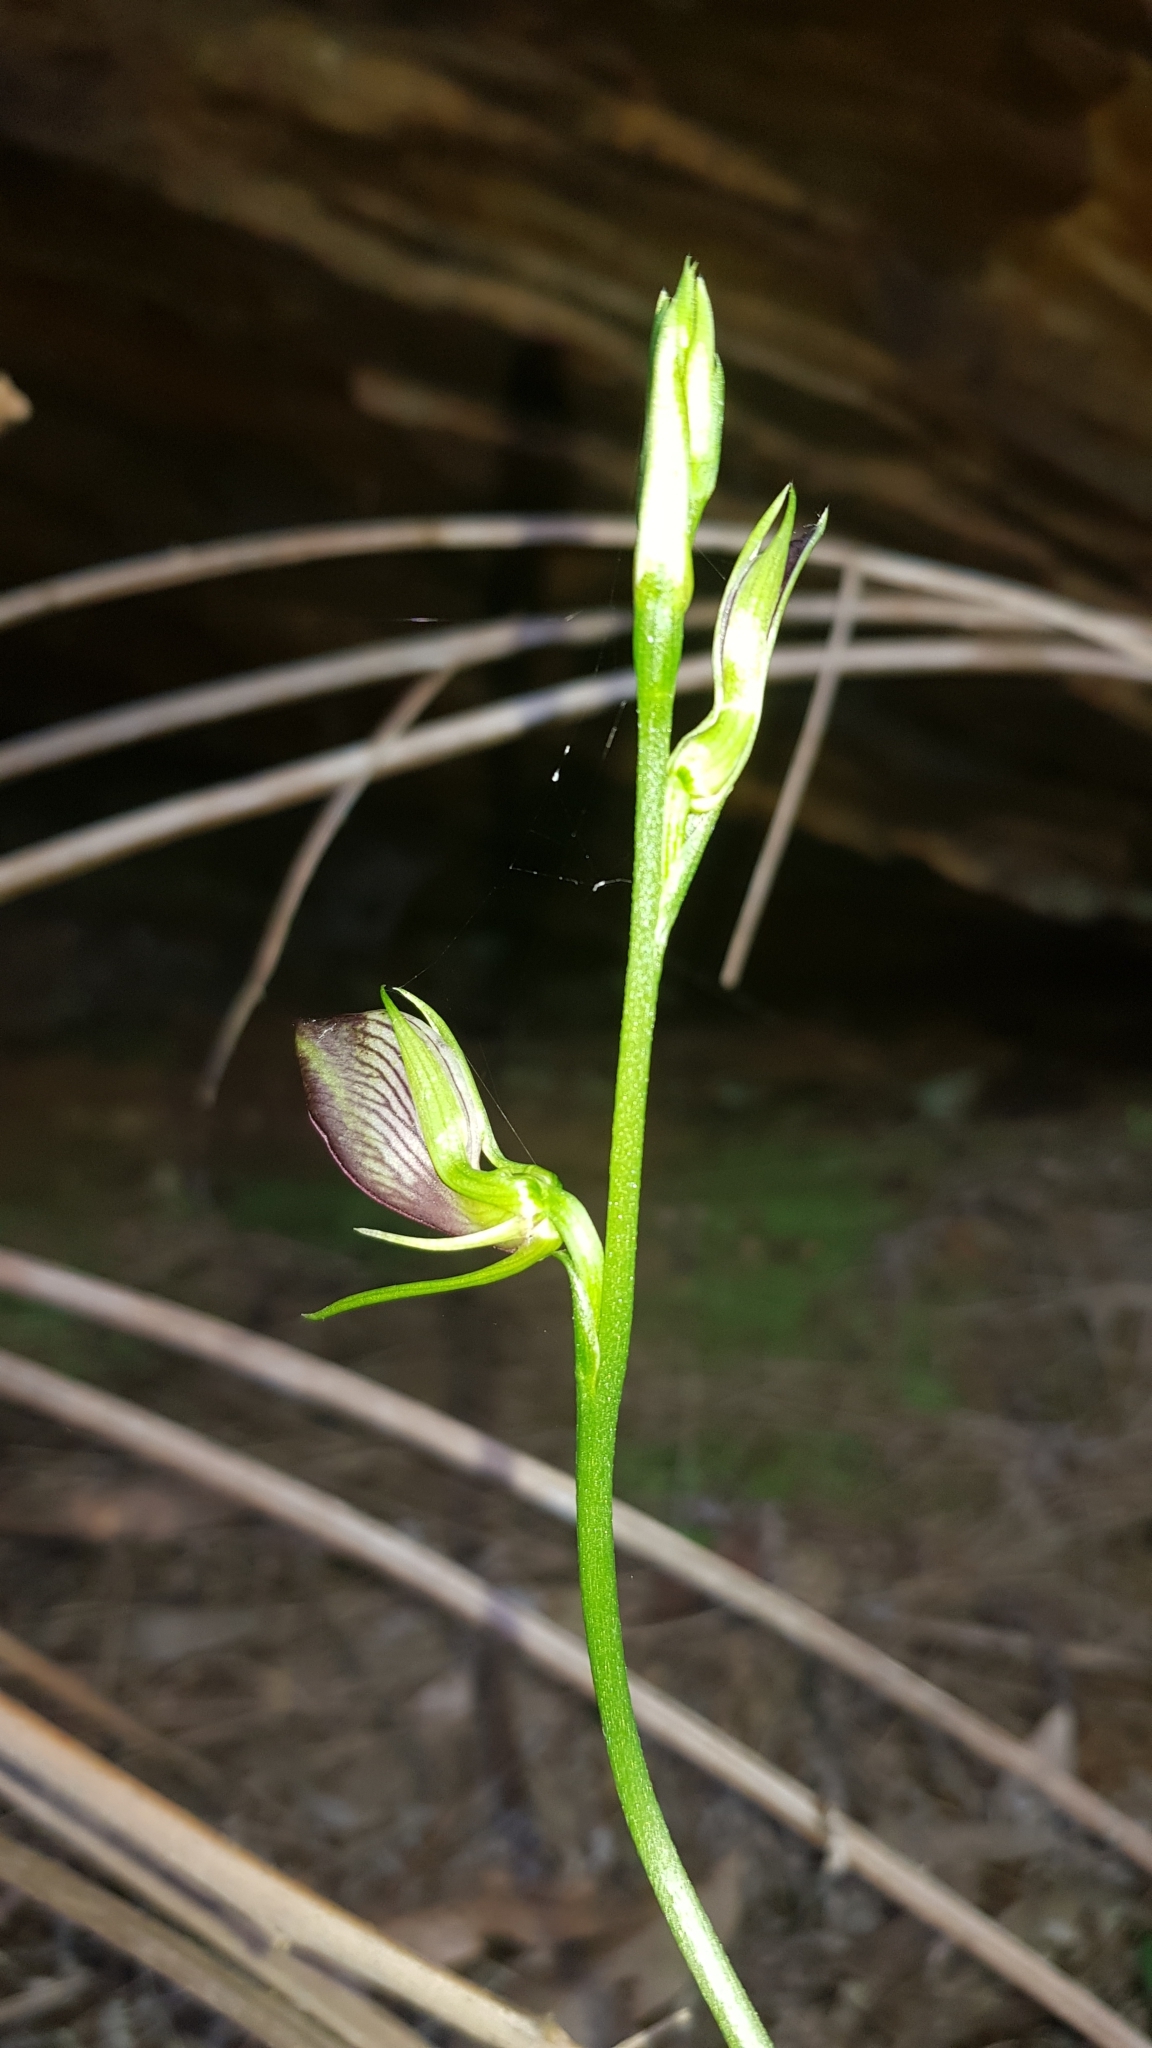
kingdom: Plantae
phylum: Tracheophyta
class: Liliopsida
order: Asparagales
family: Orchidaceae
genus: Cryptostylis
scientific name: Cryptostylis erecta
